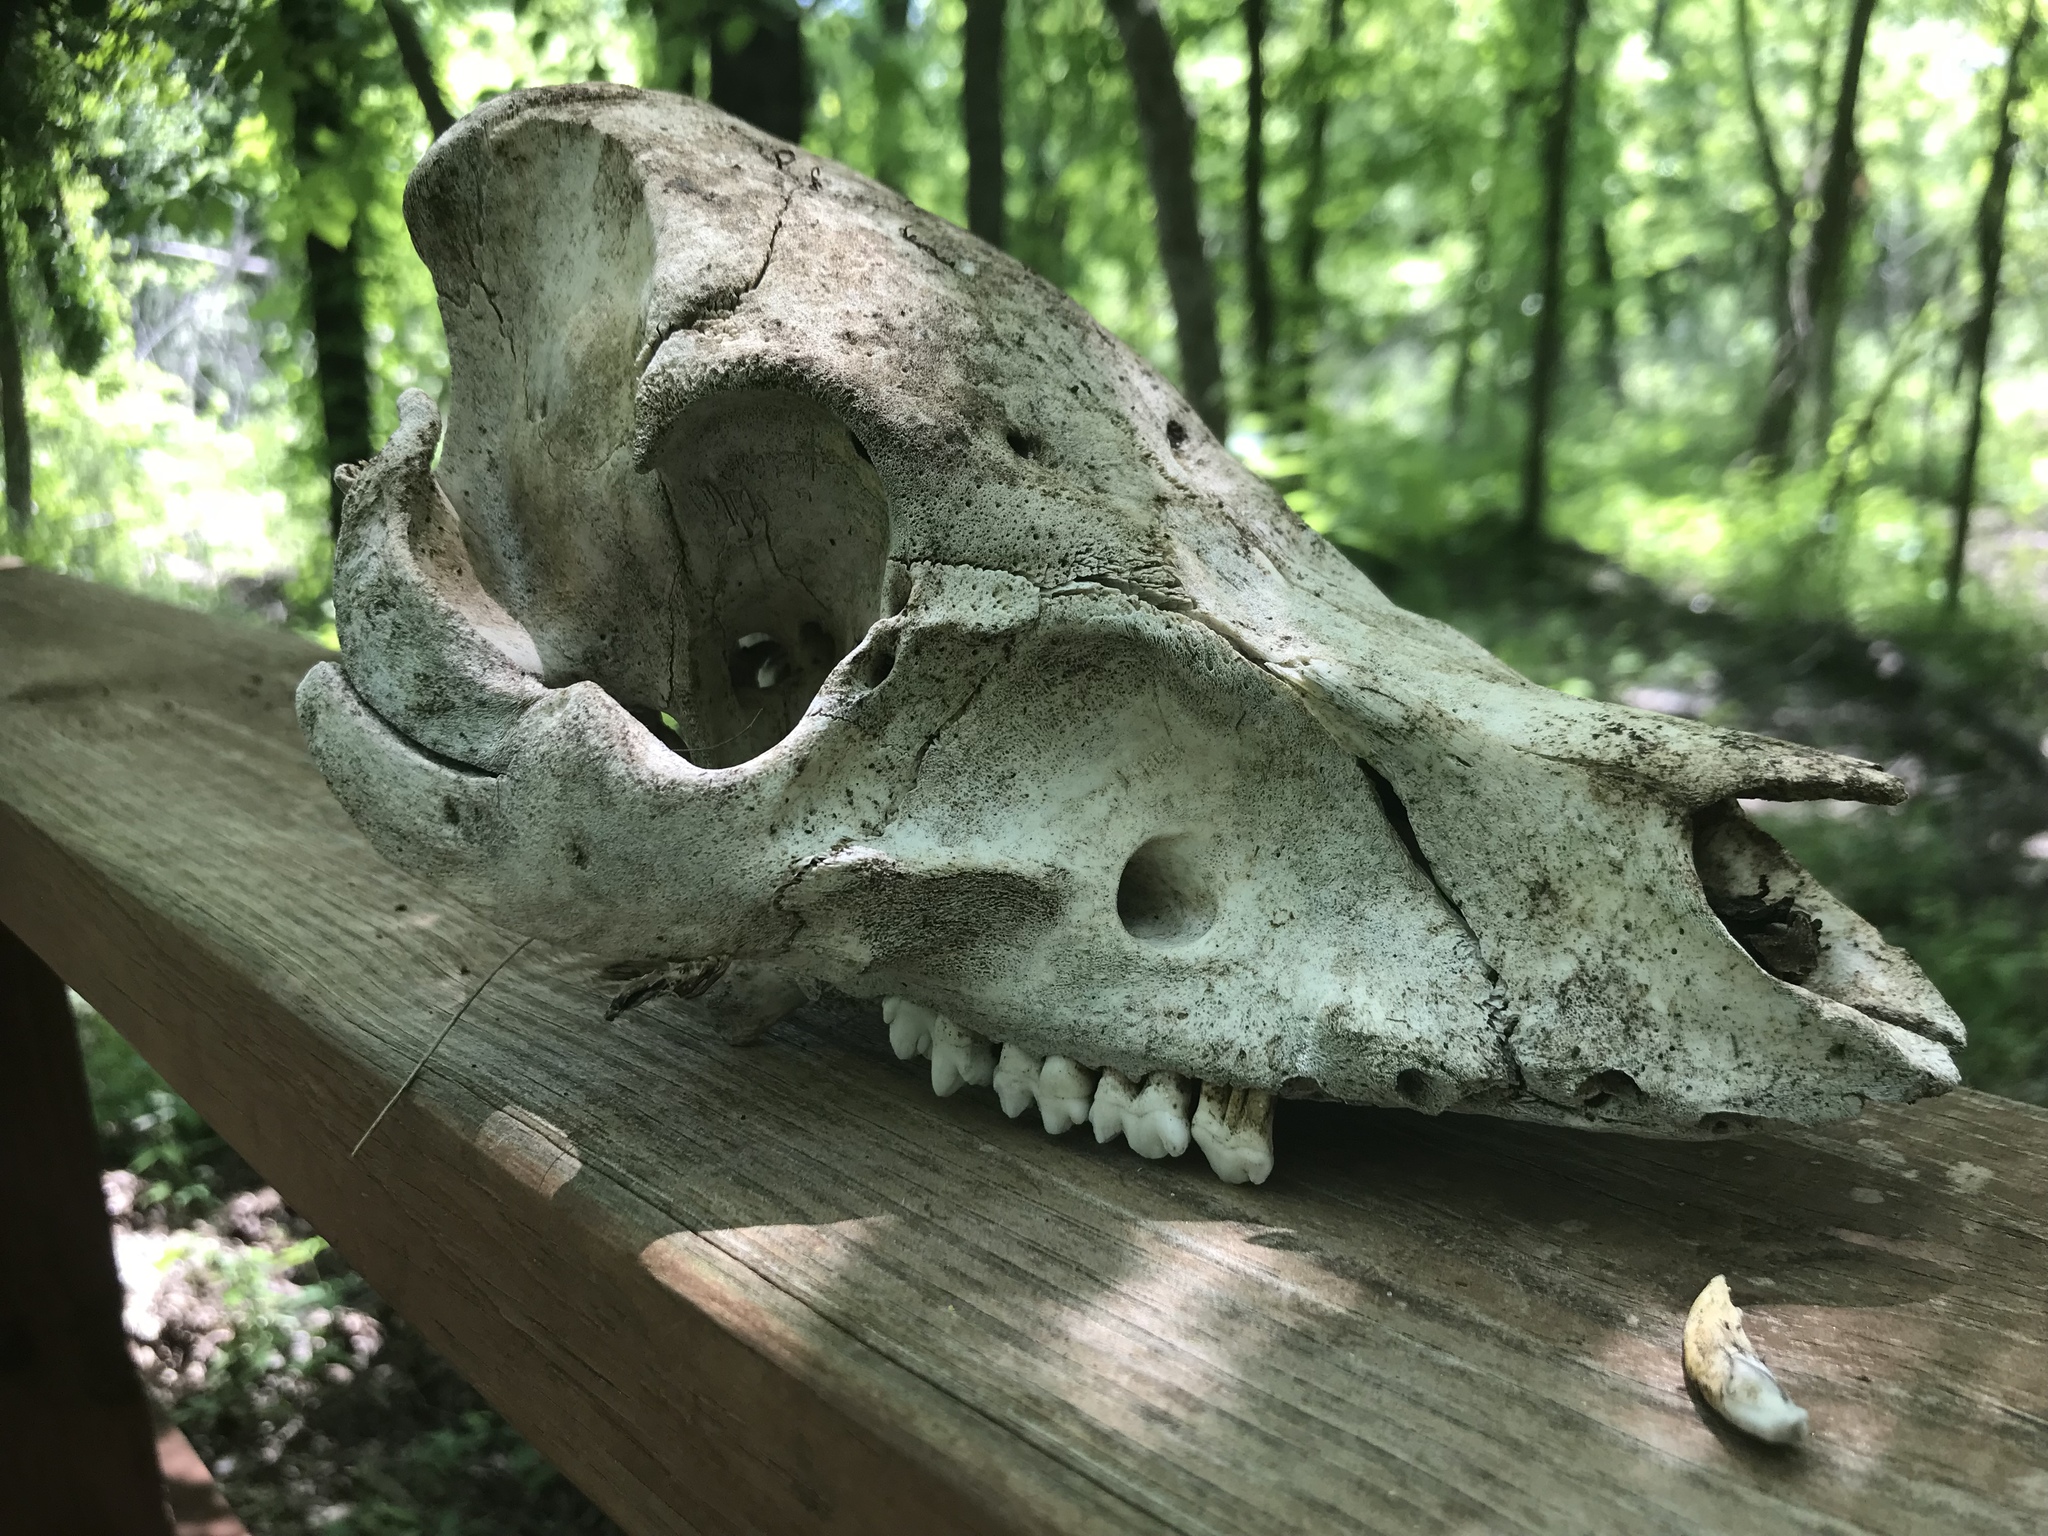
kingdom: Animalia
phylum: Chordata
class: Mammalia
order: Artiodactyla
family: Suidae
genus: Sus
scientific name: Sus scrofa
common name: Wild boar
